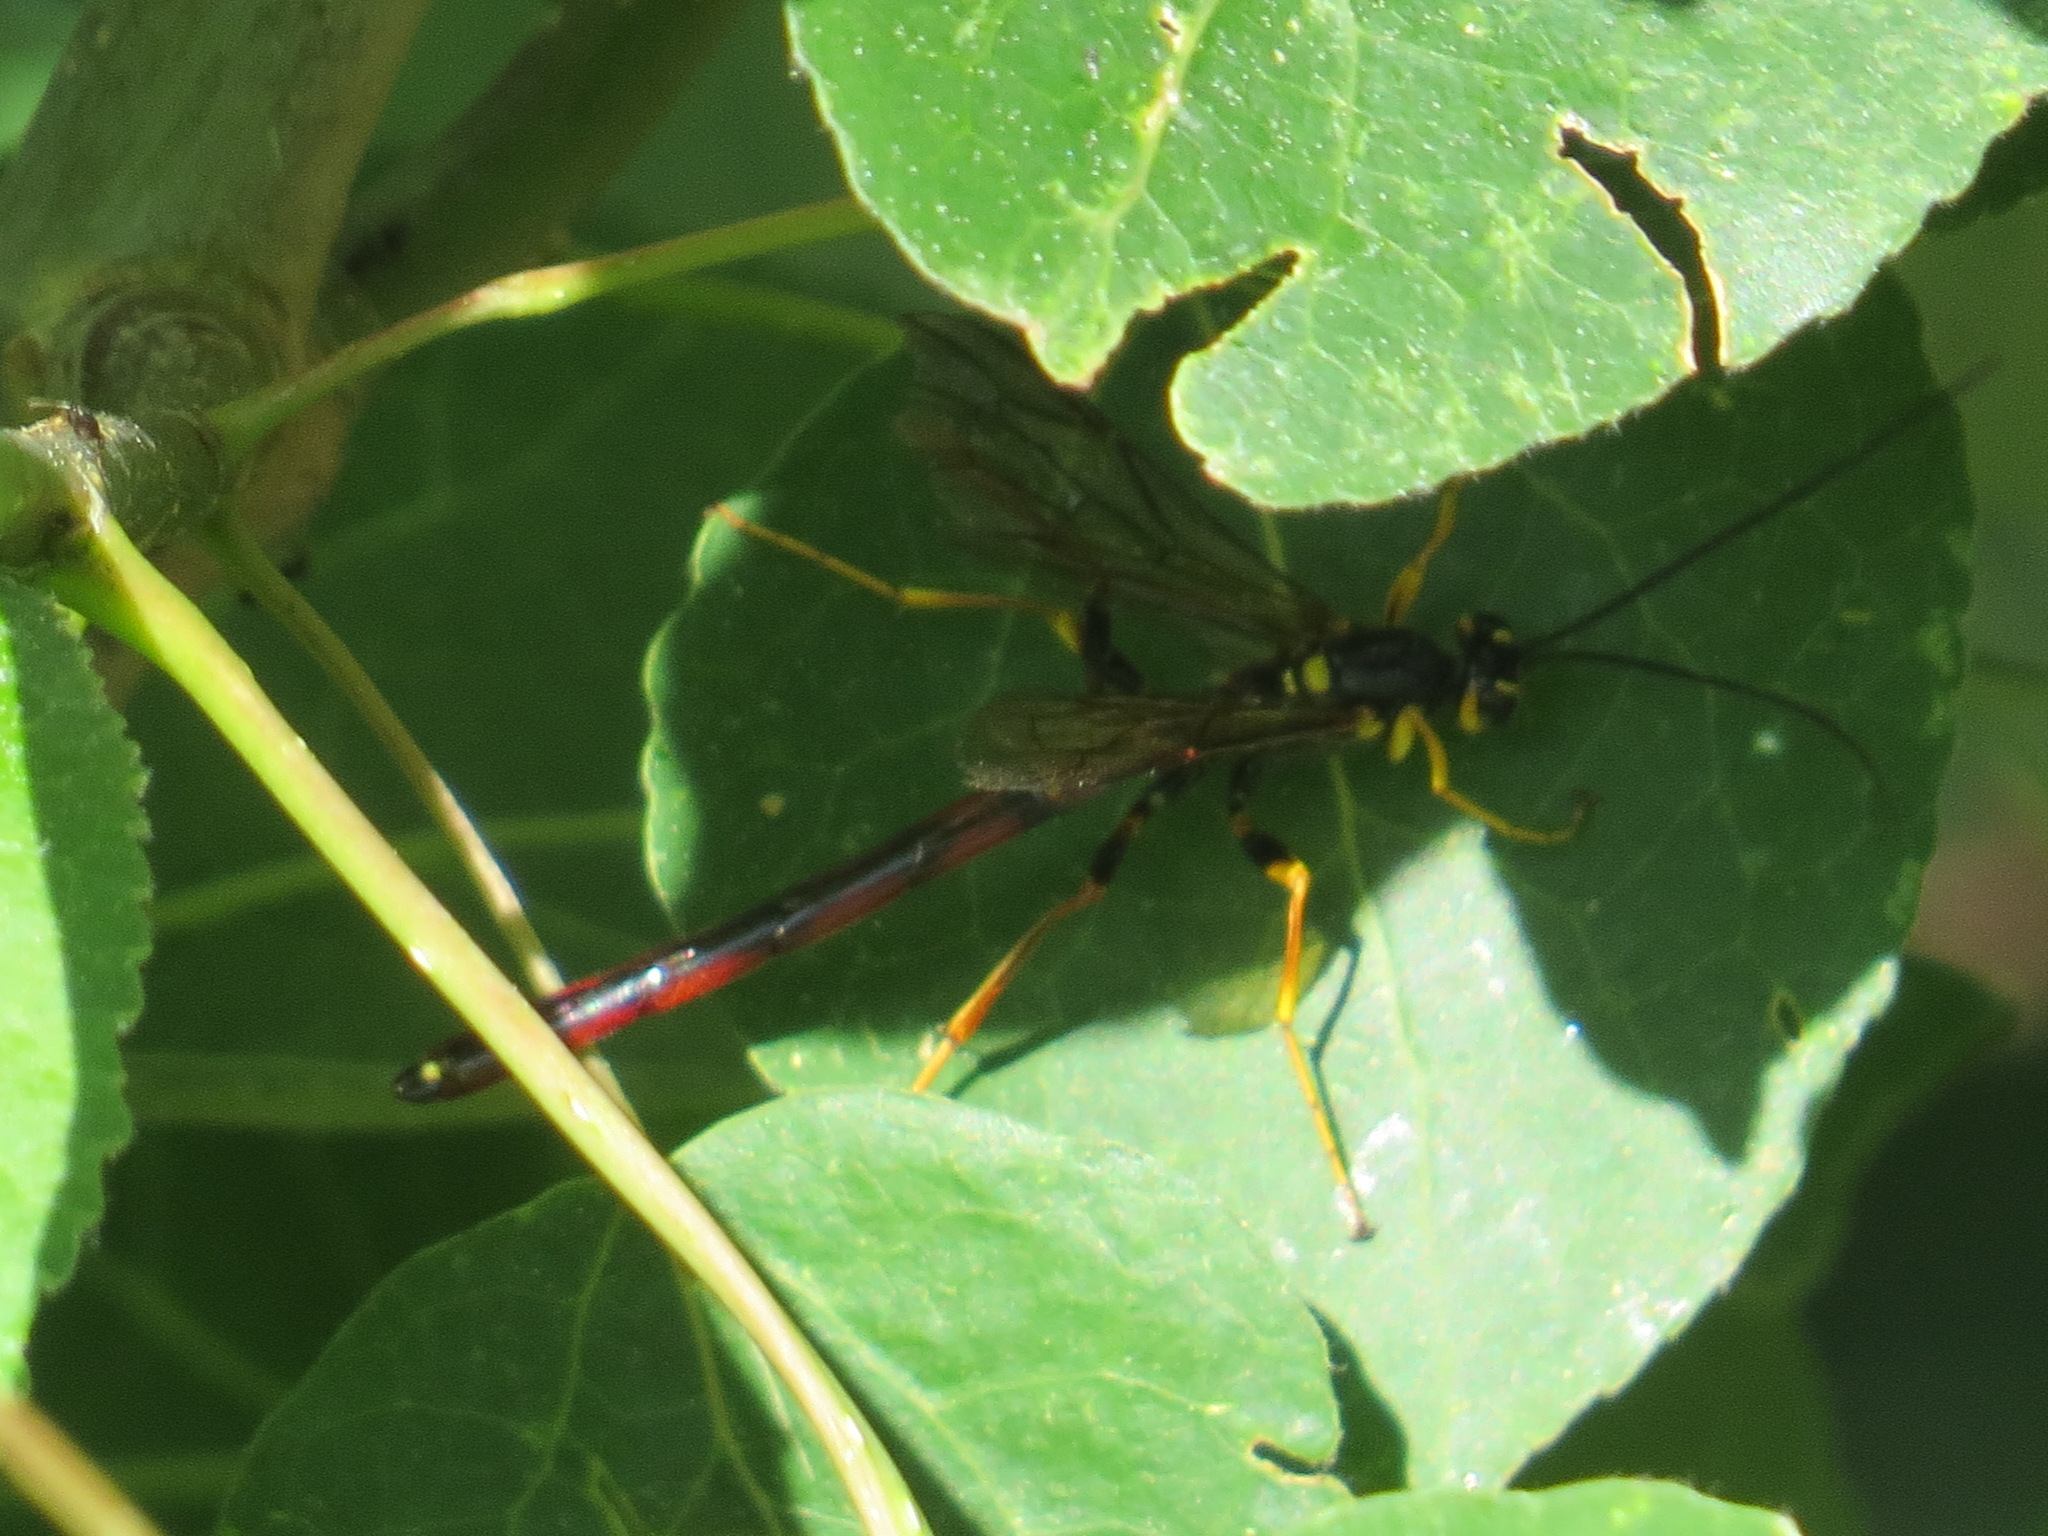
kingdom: Animalia
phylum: Arthropoda
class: Insecta
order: Hymenoptera
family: Ichneumonidae
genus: Megarhyssa
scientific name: Megarhyssa nortoni
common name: Norton's giant ichneumonid wasp
